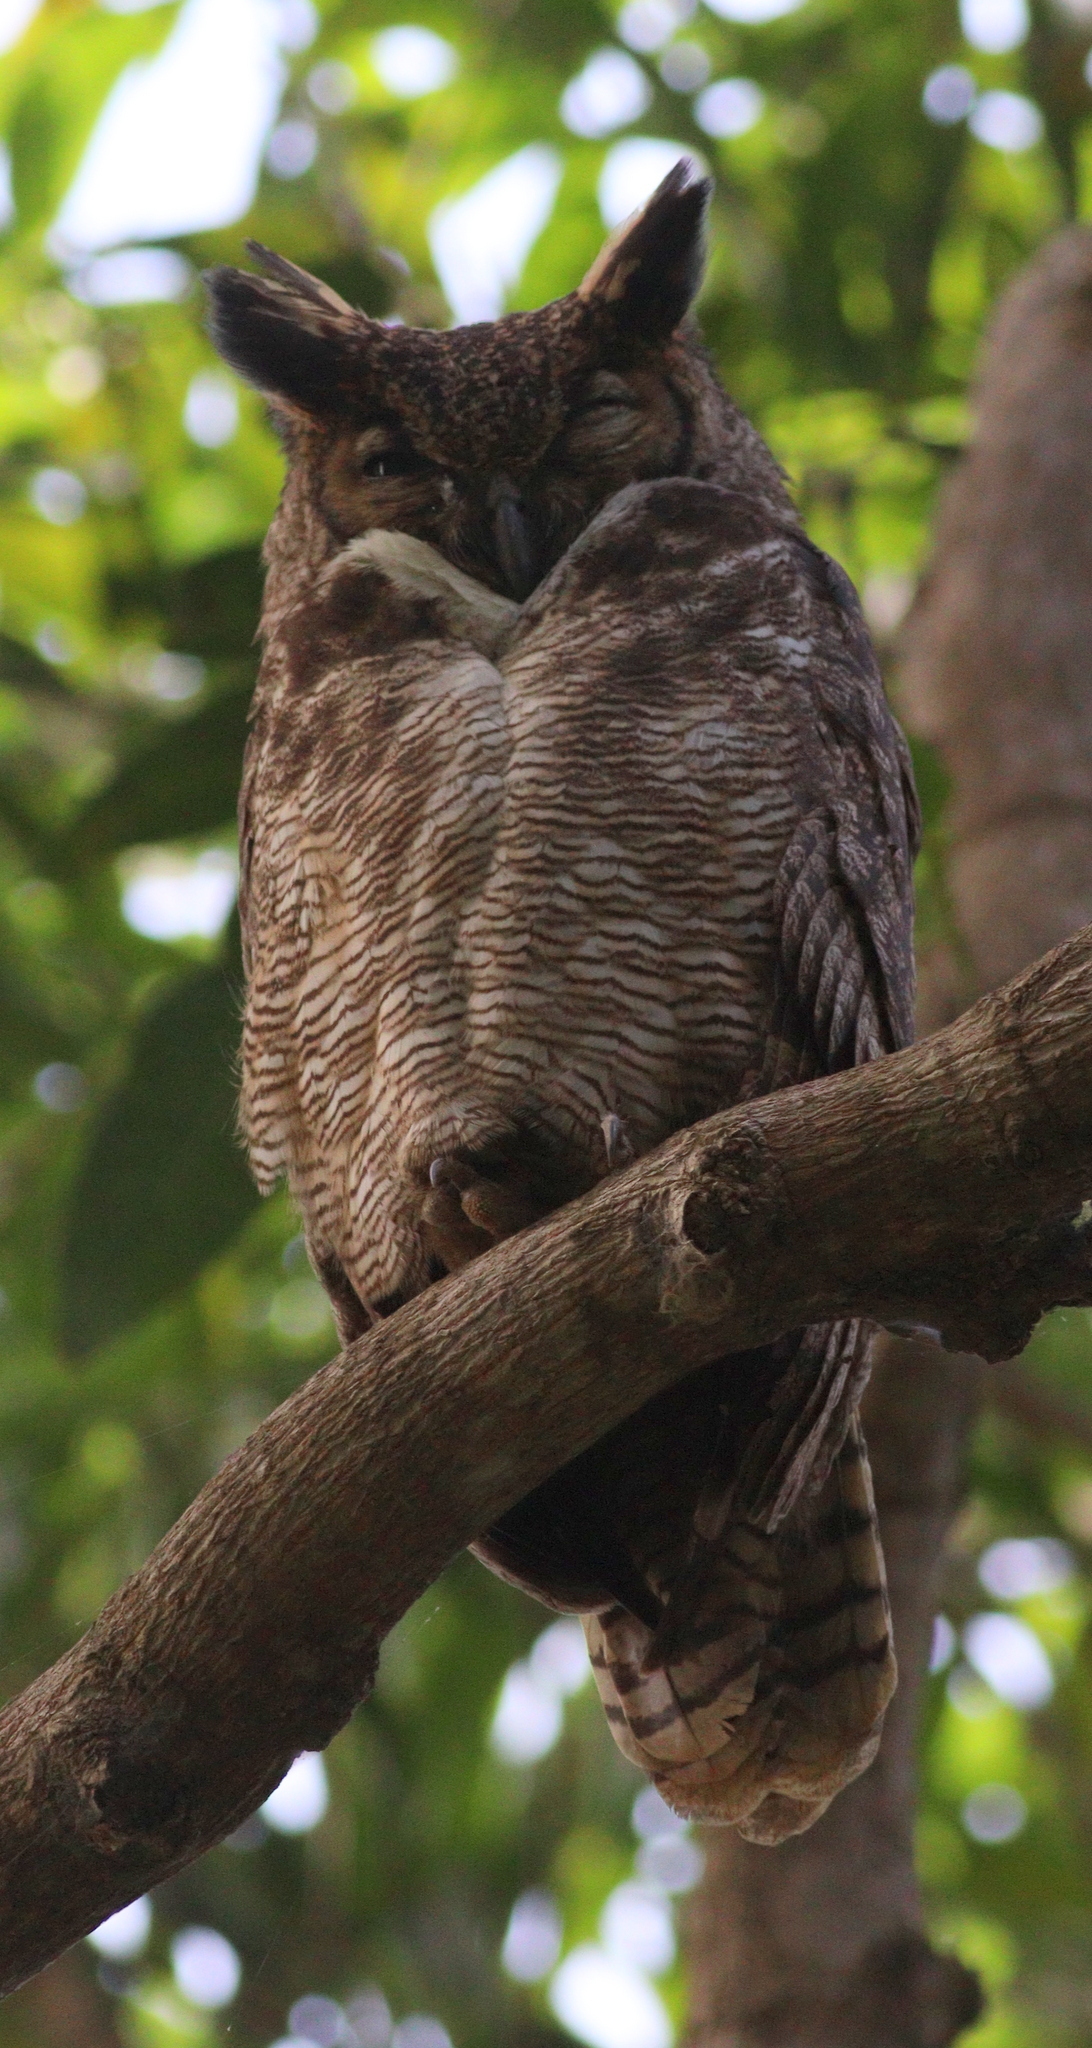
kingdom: Animalia
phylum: Chordata
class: Aves
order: Strigiformes
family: Strigidae
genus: Bubo
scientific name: Bubo virginianus
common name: Great horned owl
